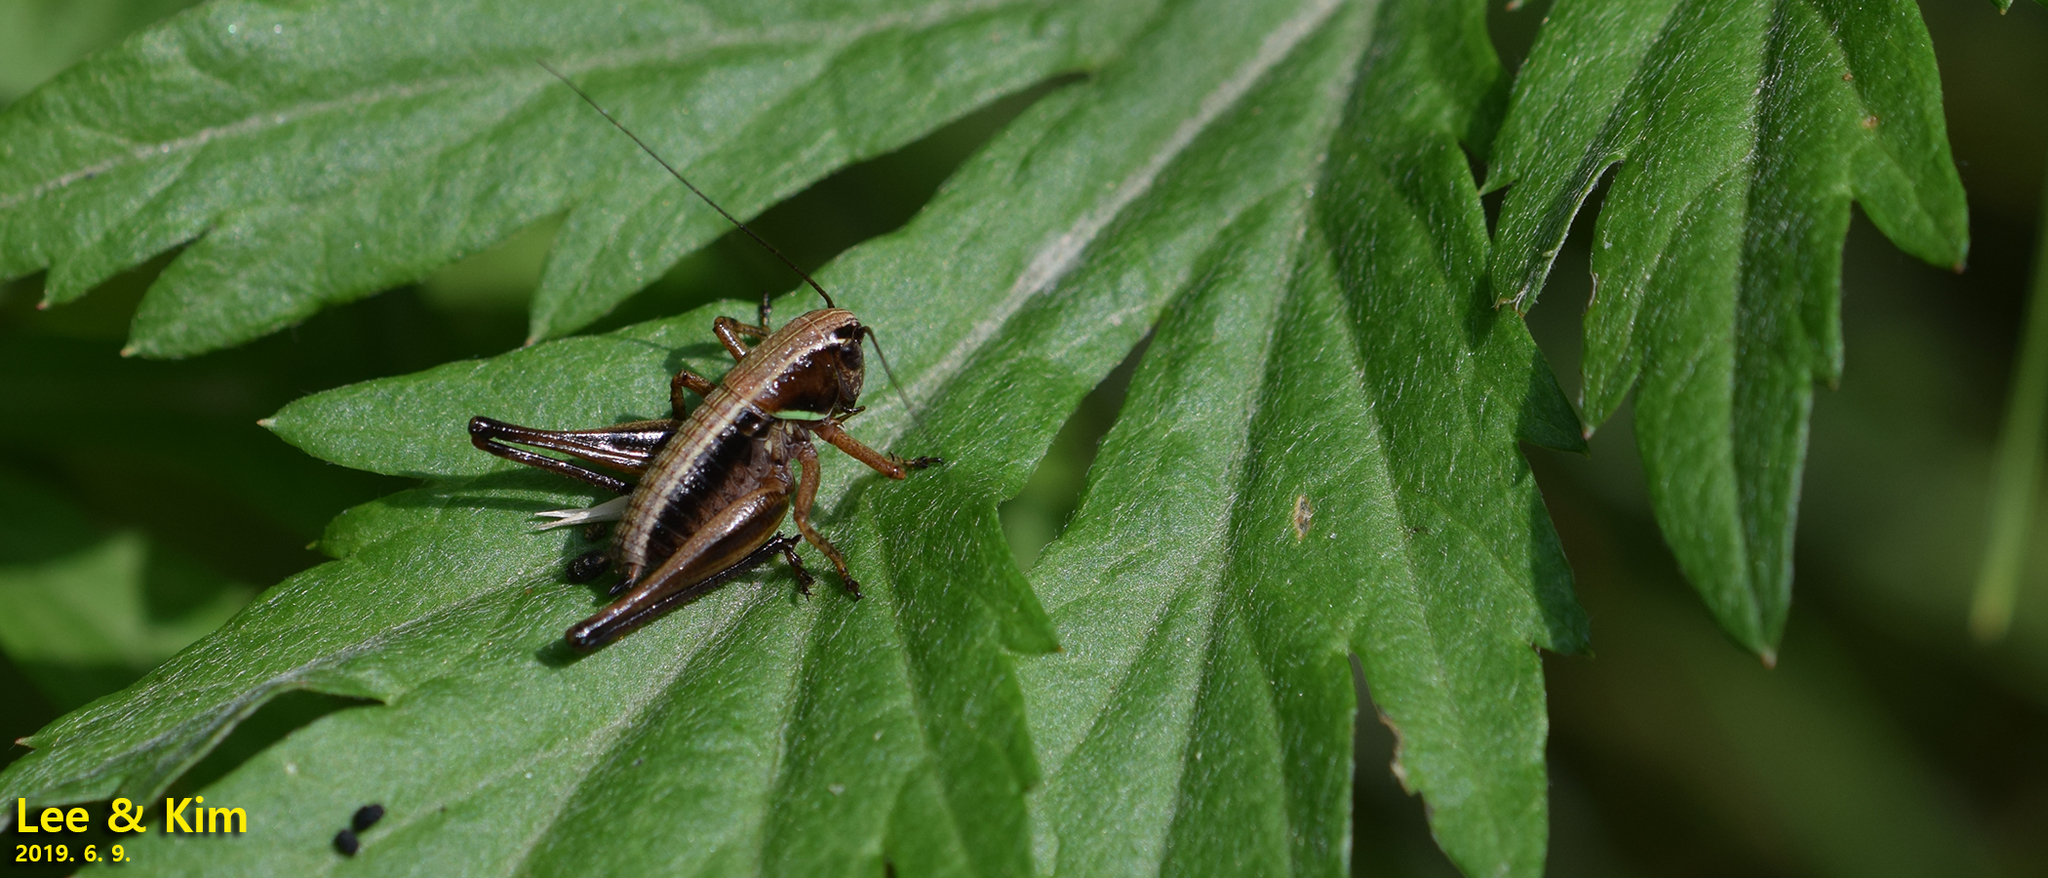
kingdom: Animalia
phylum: Arthropoda
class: Insecta
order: Orthoptera
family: Tettigoniidae
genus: Chizuella
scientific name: Chizuella bonneti
